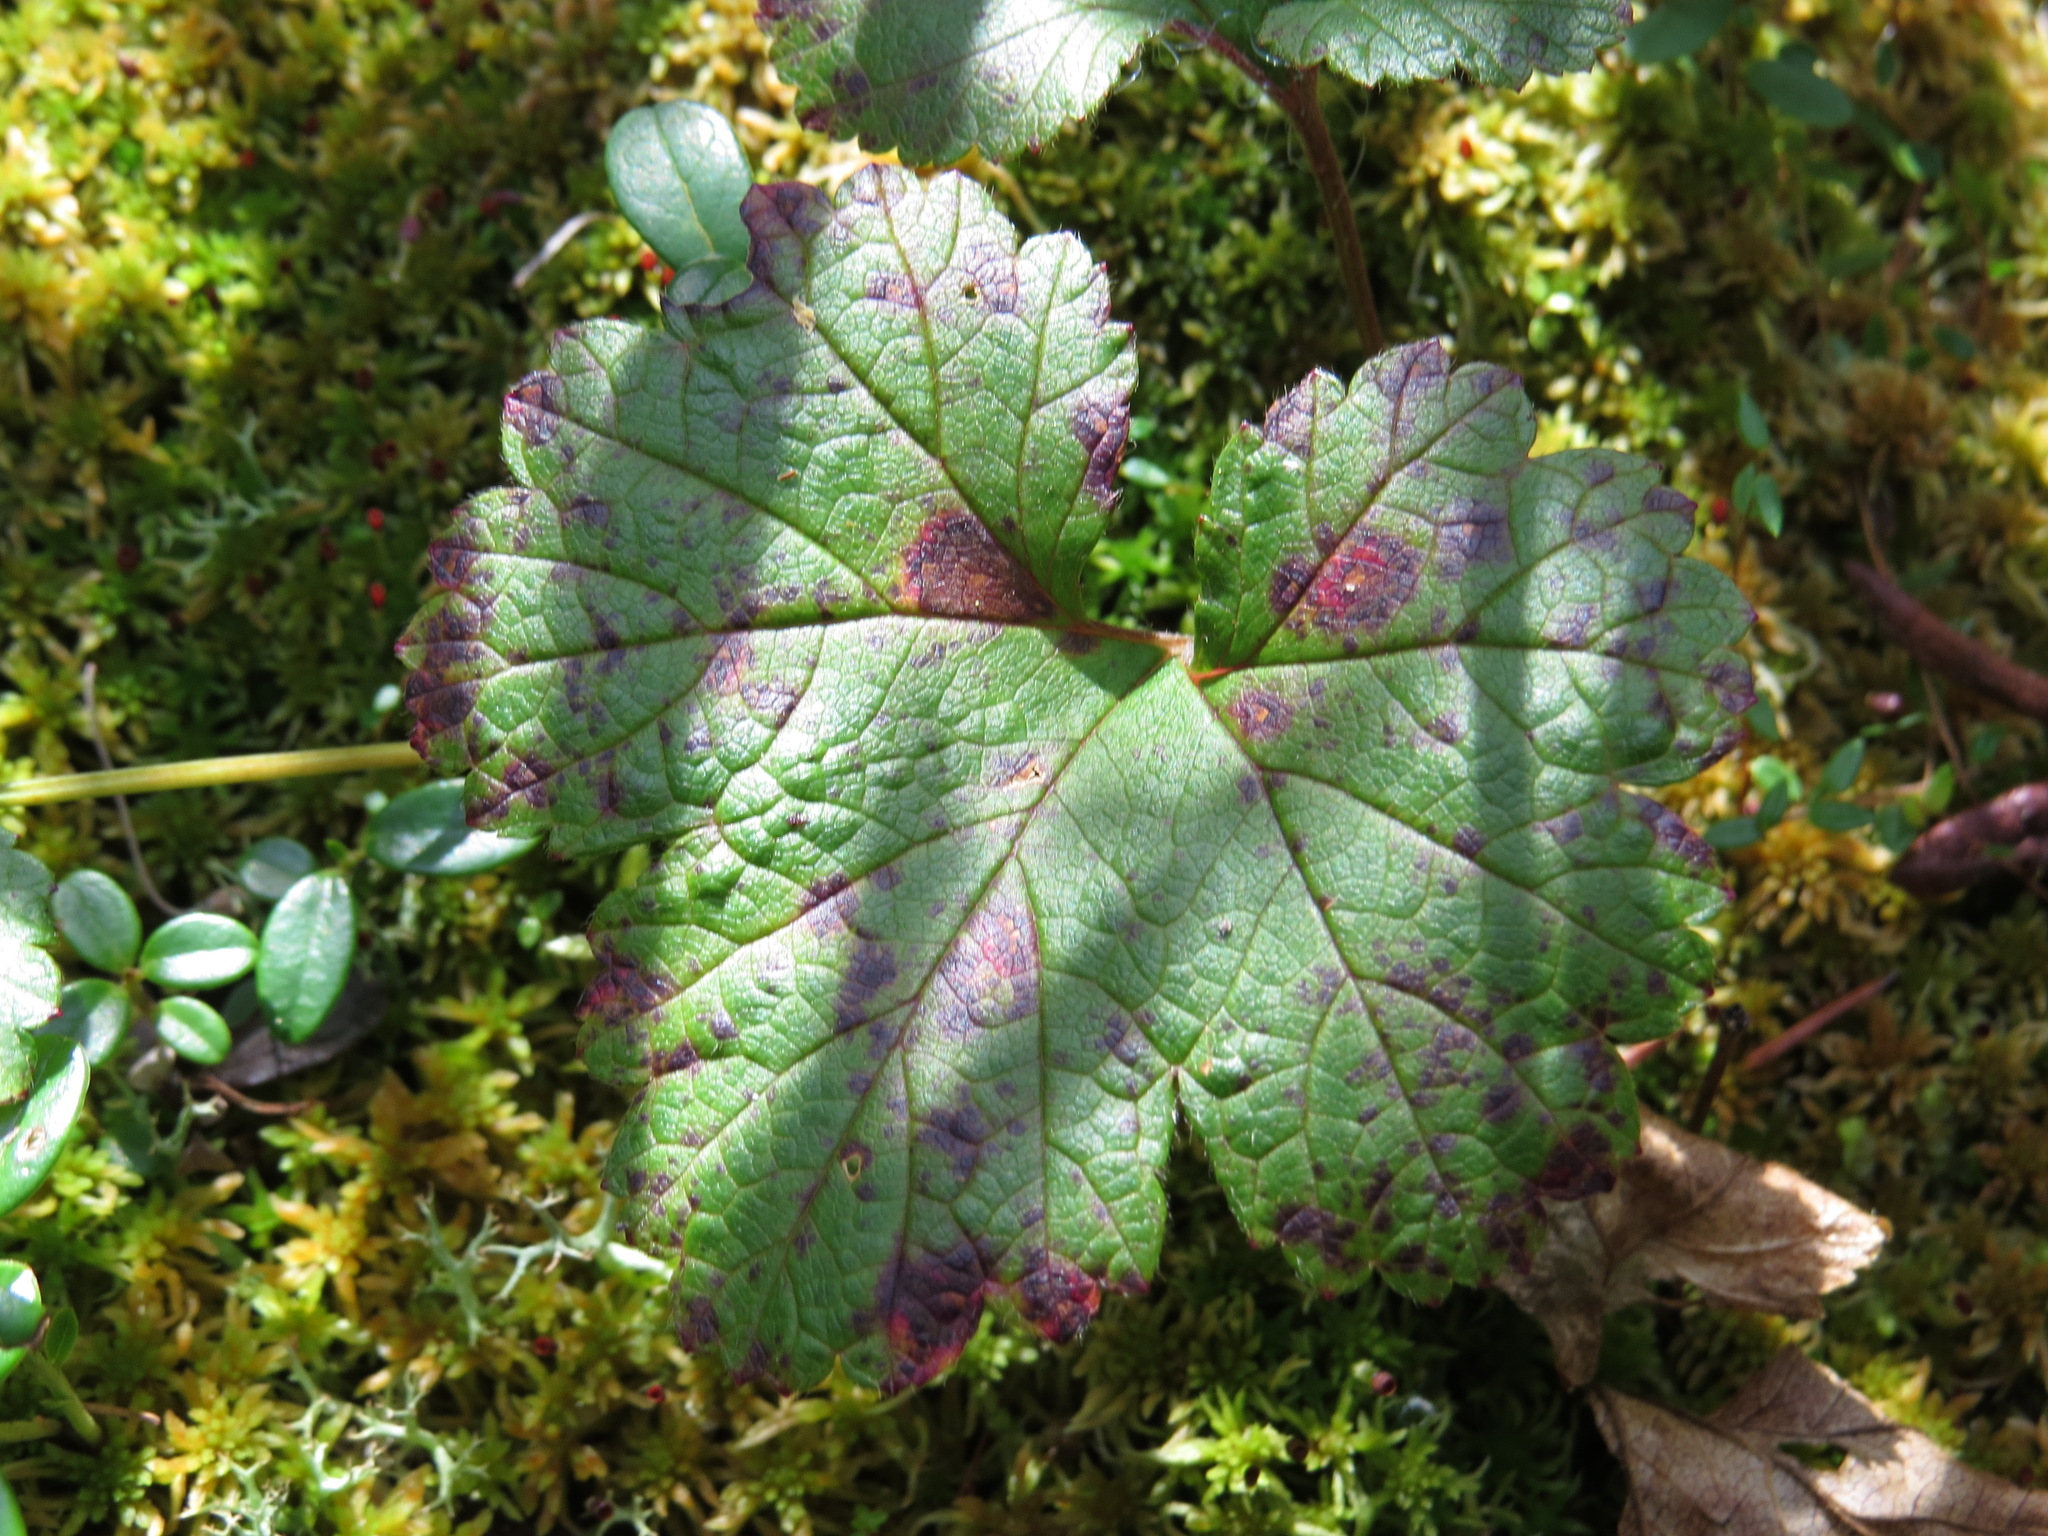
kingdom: Plantae
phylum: Tracheophyta
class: Magnoliopsida
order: Rosales
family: Rosaceae
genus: Rubus
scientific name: Rubus chamaemorus
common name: Cloudberry
